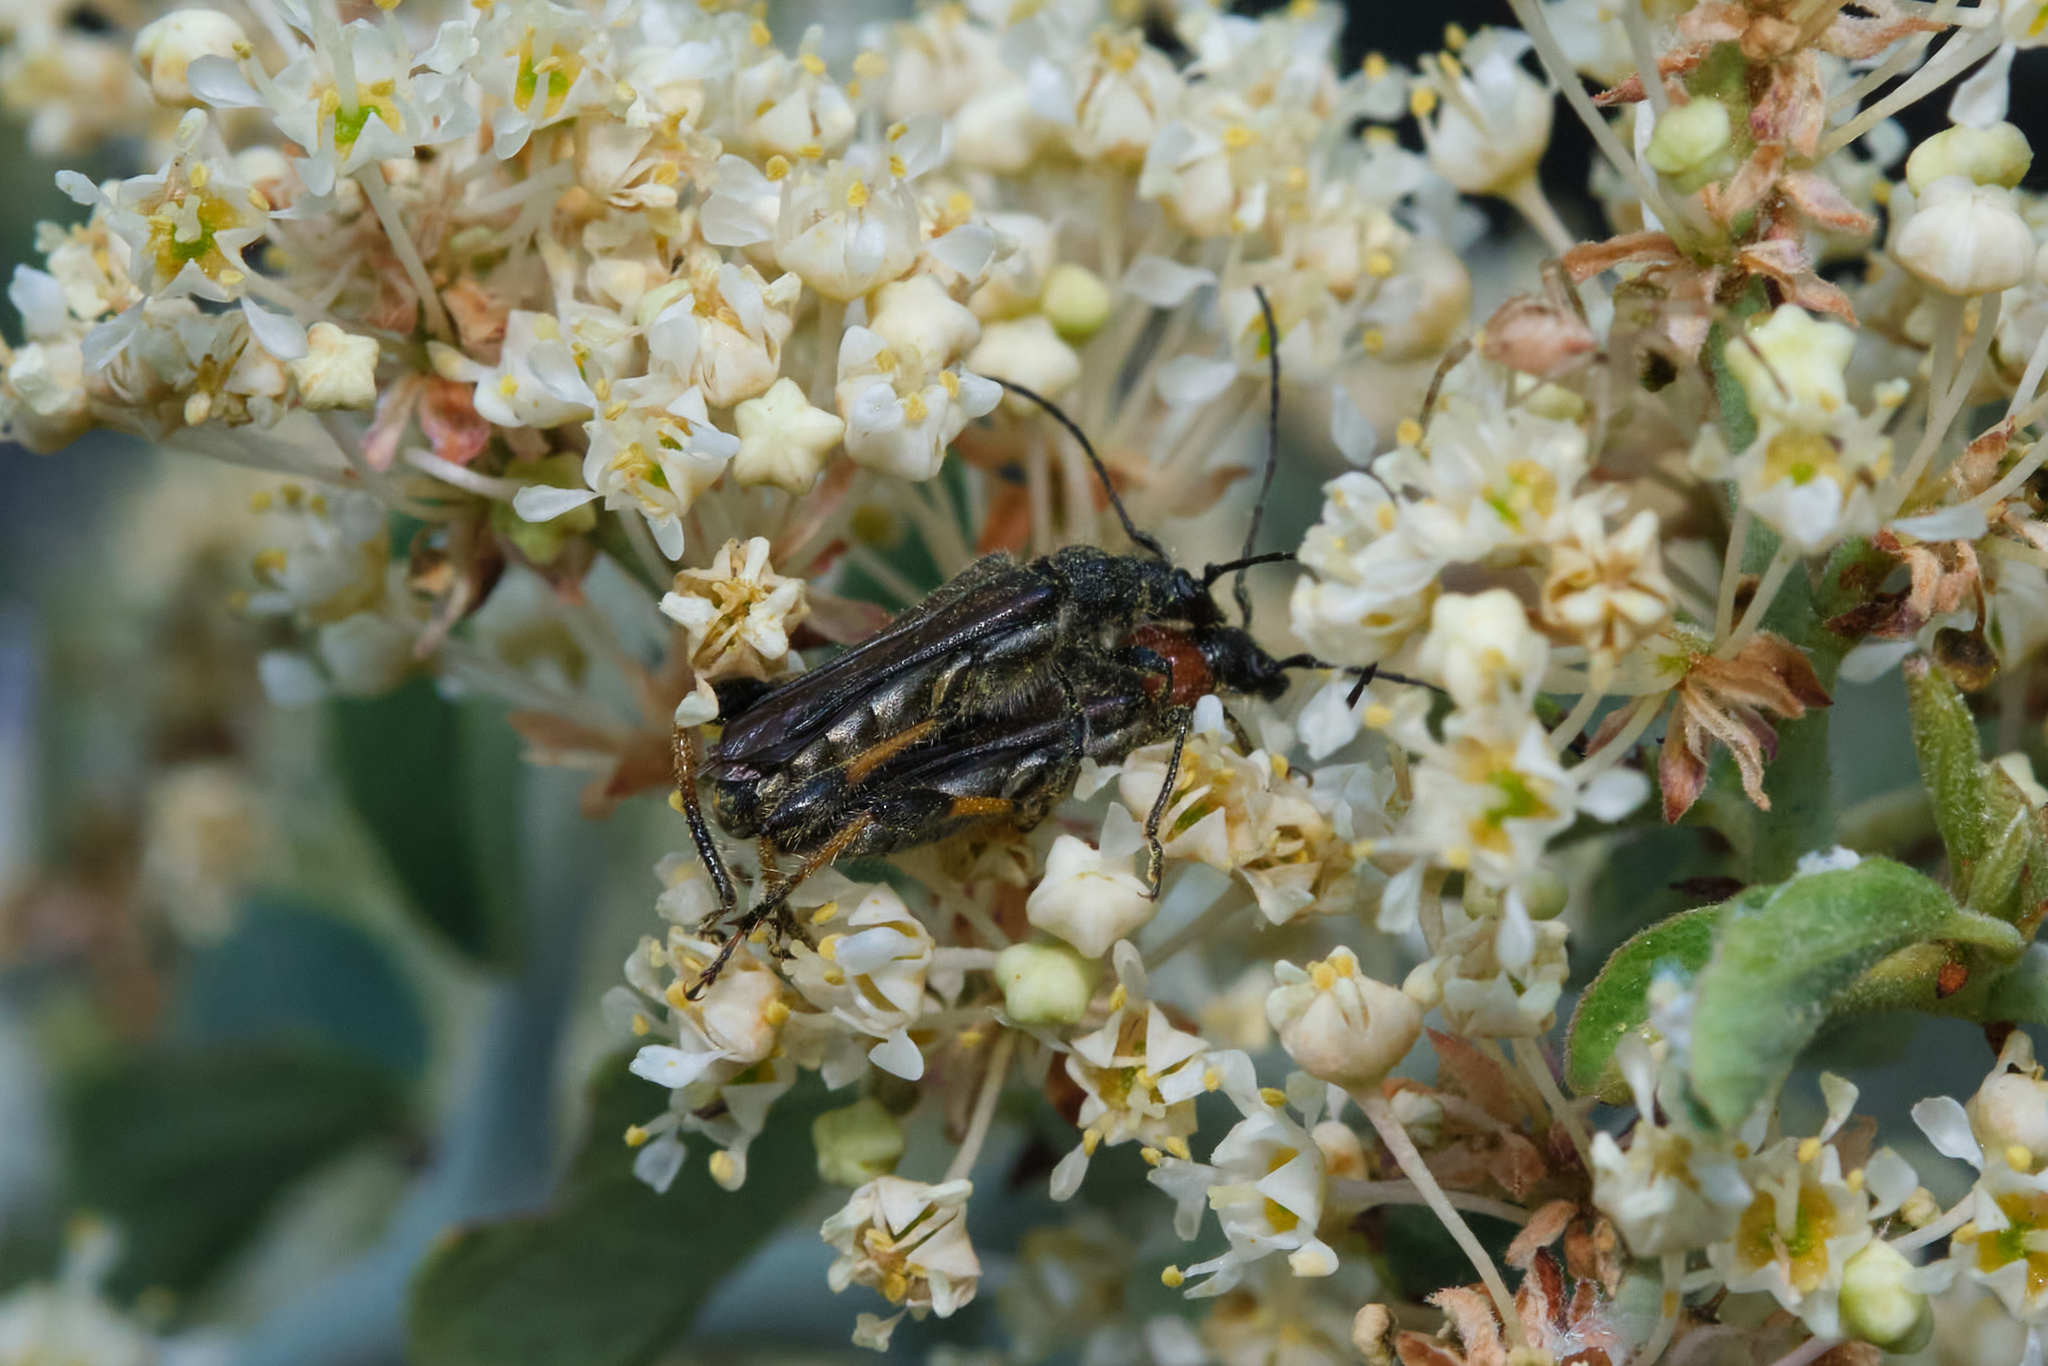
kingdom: Animalia
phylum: Arthropoda
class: Insecta
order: Coleoptera
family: Cerambycidae
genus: Callimoxys
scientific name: Callimoxys fuscipennis
